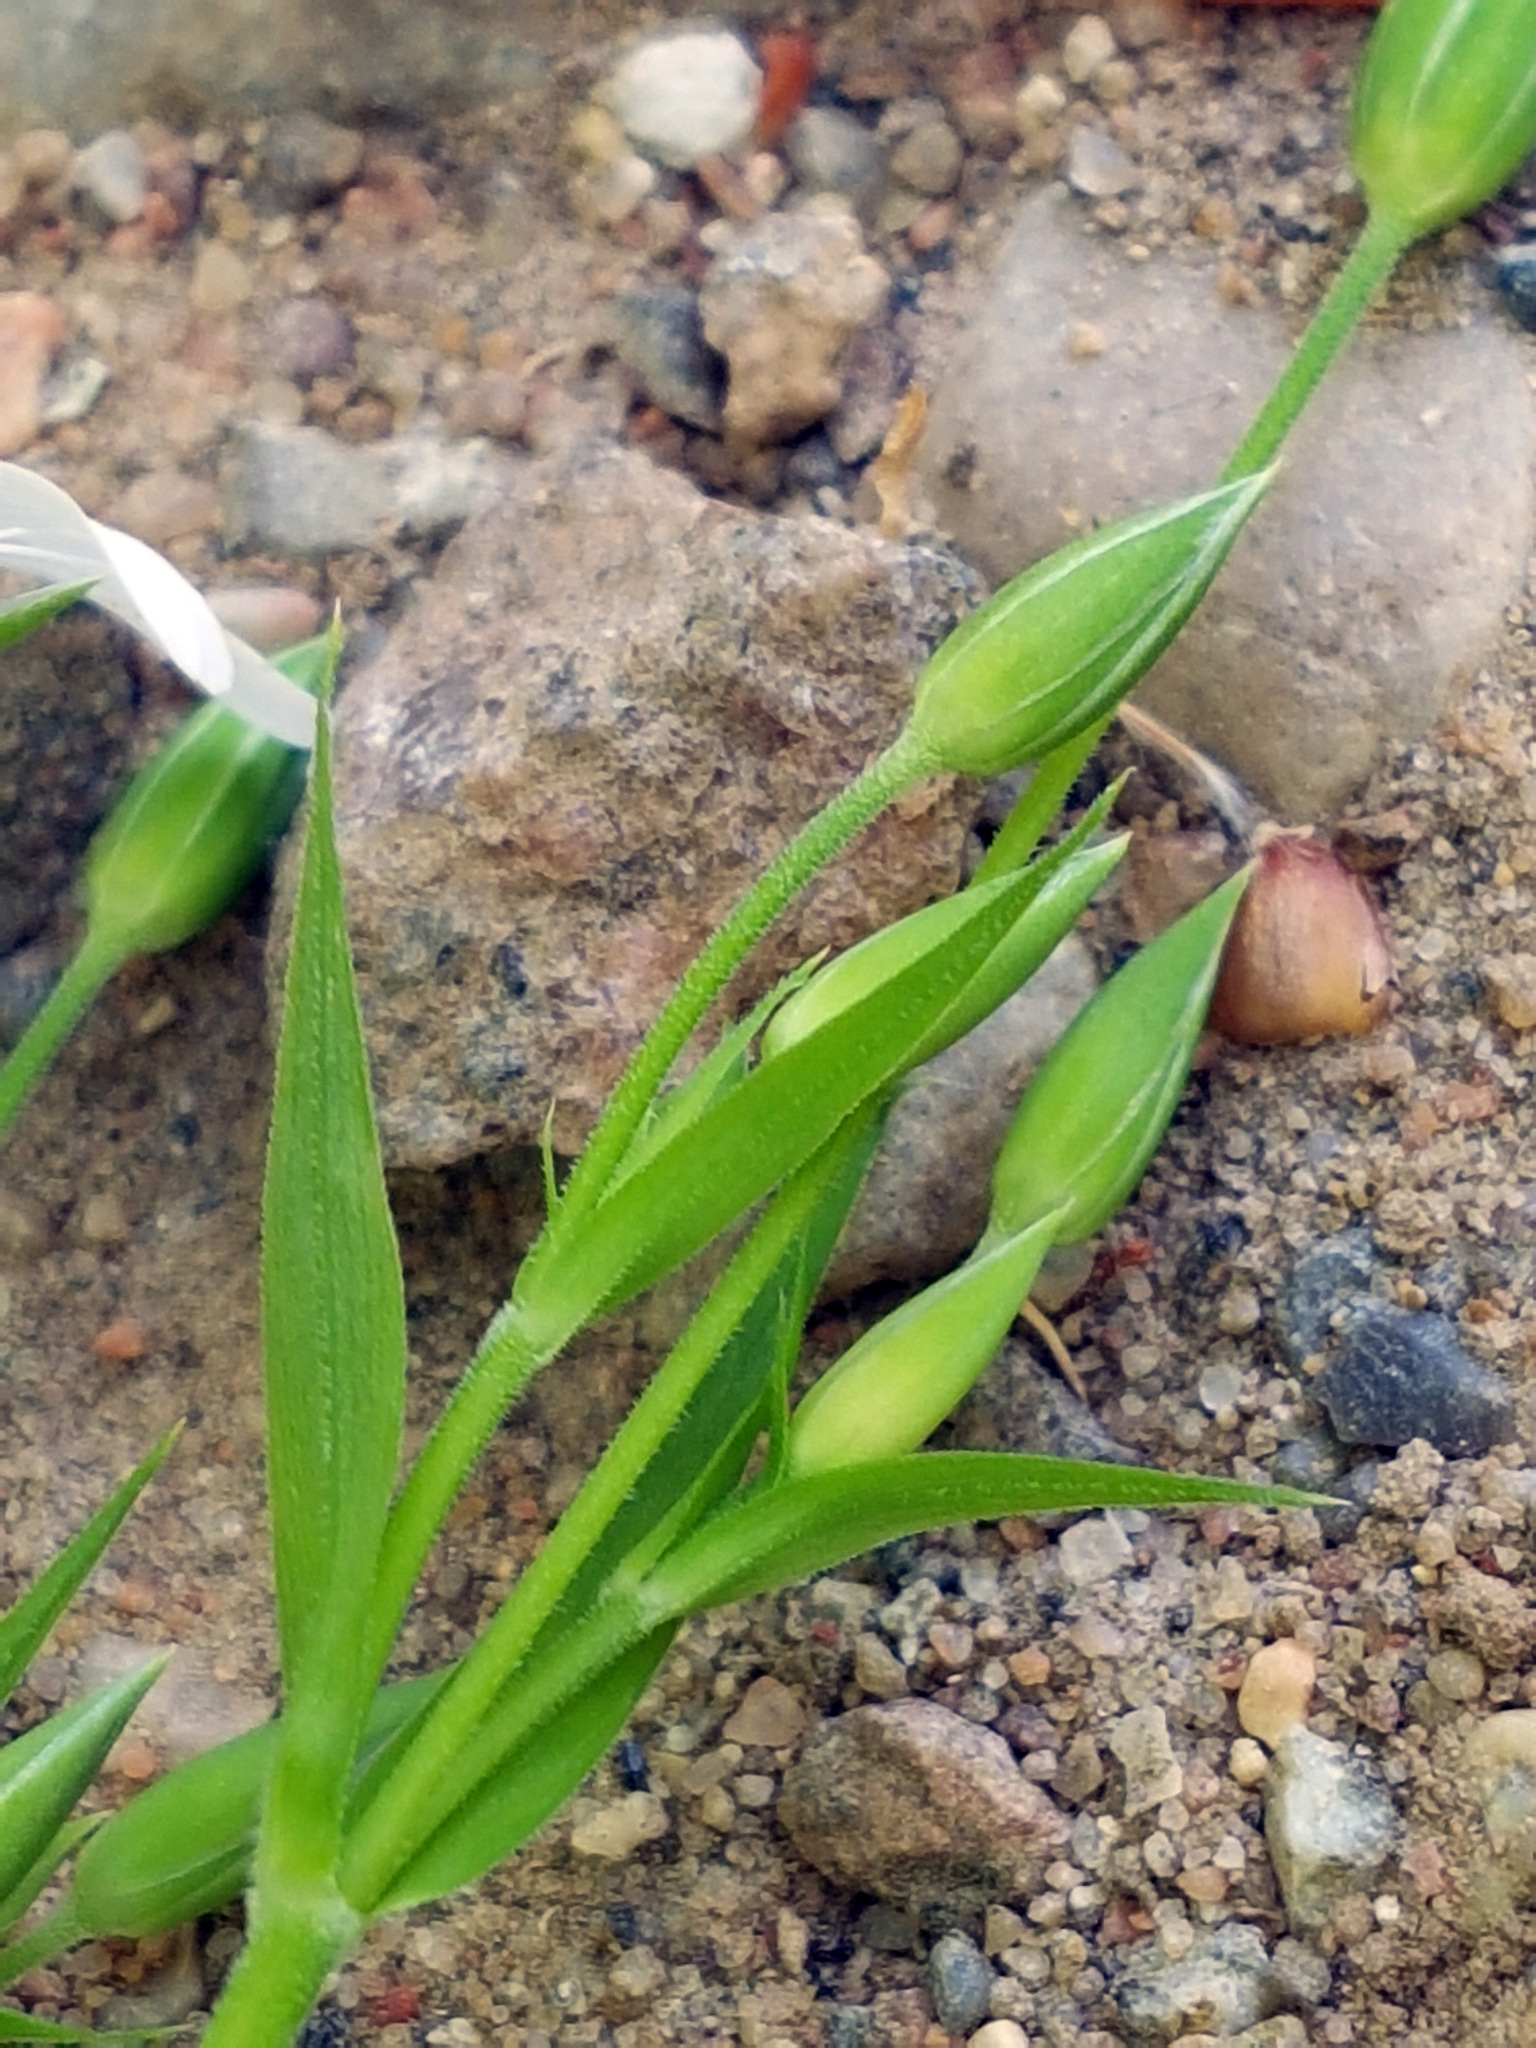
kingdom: Plantae
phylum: Tracheophyta
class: Magnoliopsida
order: Caryophyllales
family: Caryophyllaceae
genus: Rabelera
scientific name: Rabelera holostea
